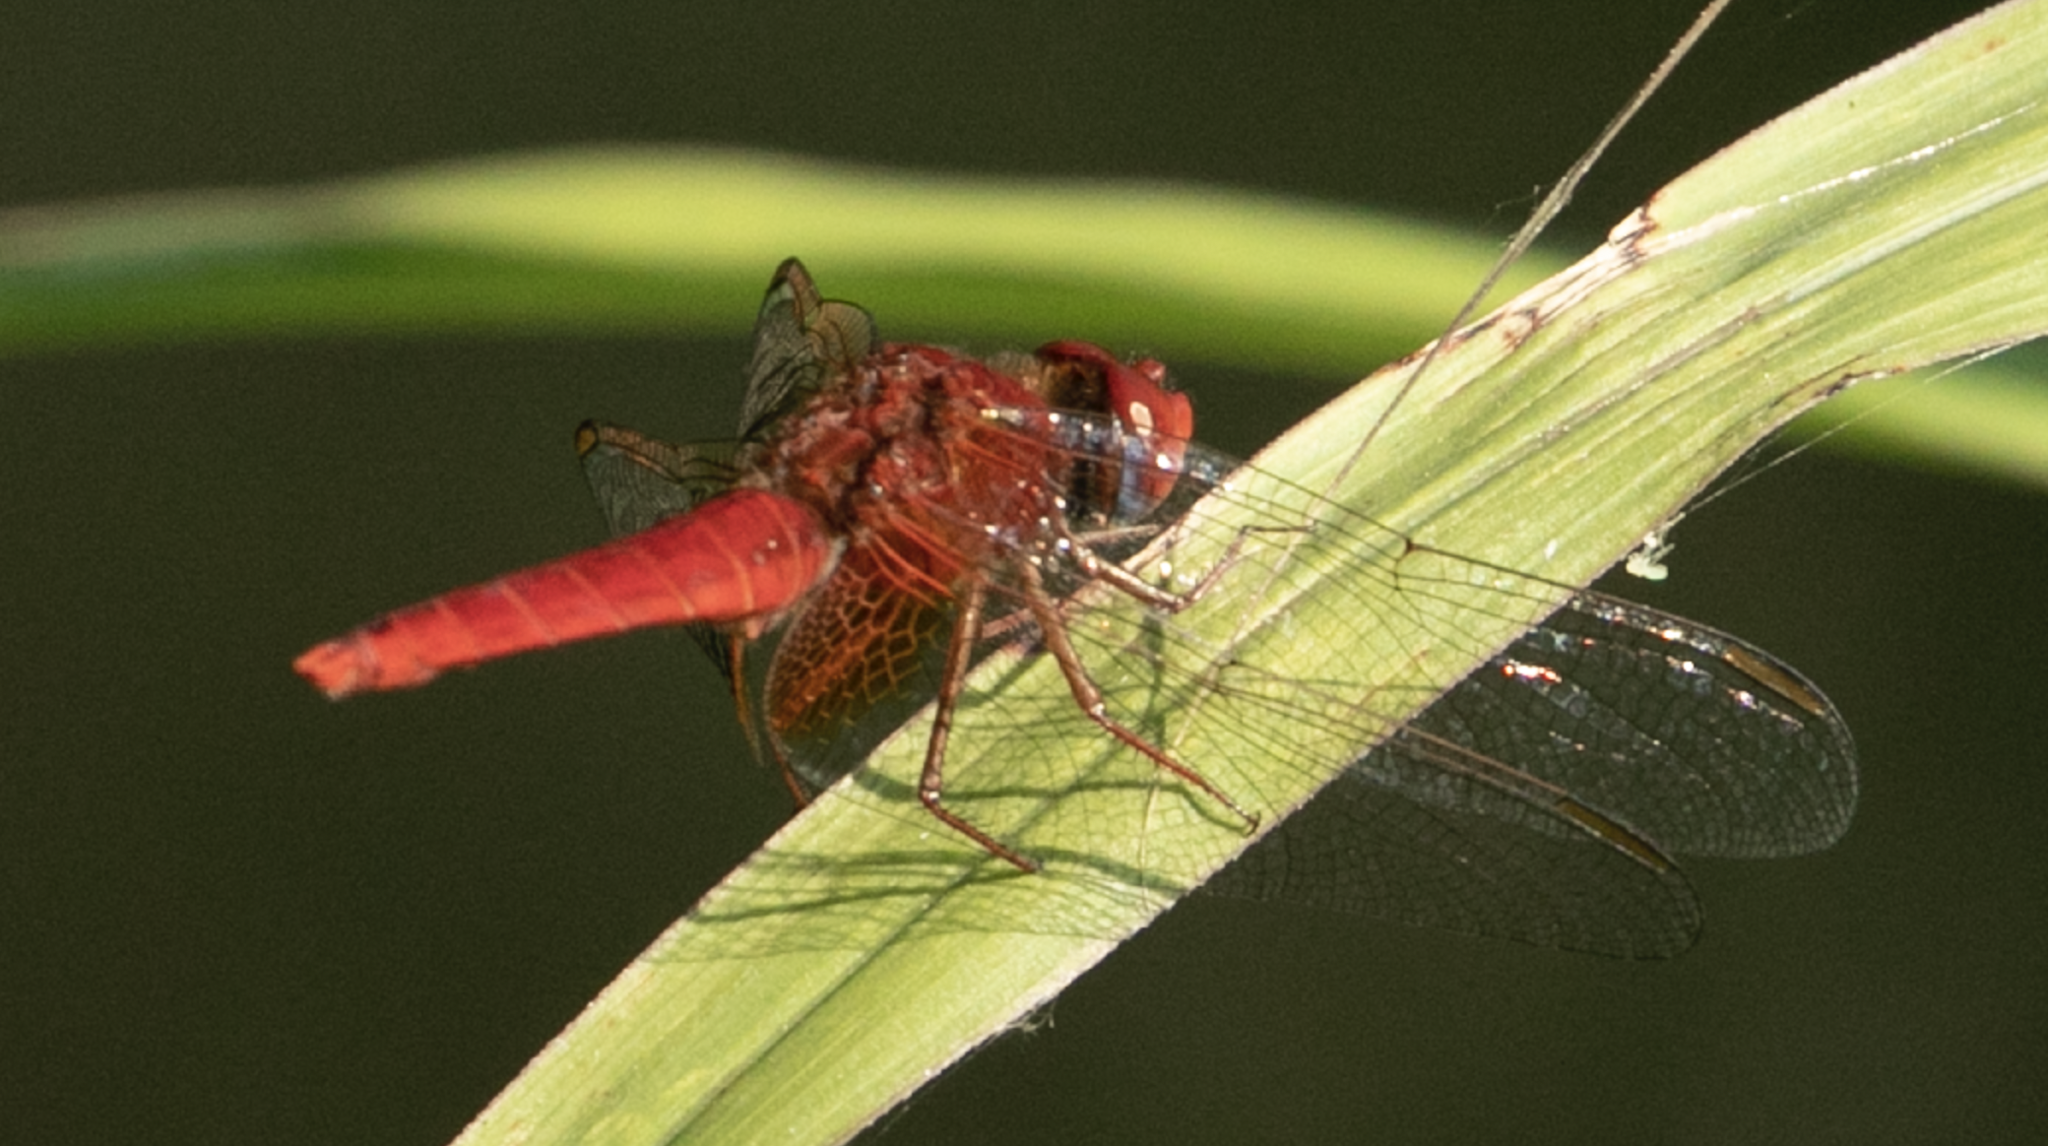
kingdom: Animalia
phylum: Arthropoda
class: Insecta
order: Odonata
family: Libellulidae
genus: Crocothemis
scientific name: Crocothemis erythraea
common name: Scarlet dragonfly
